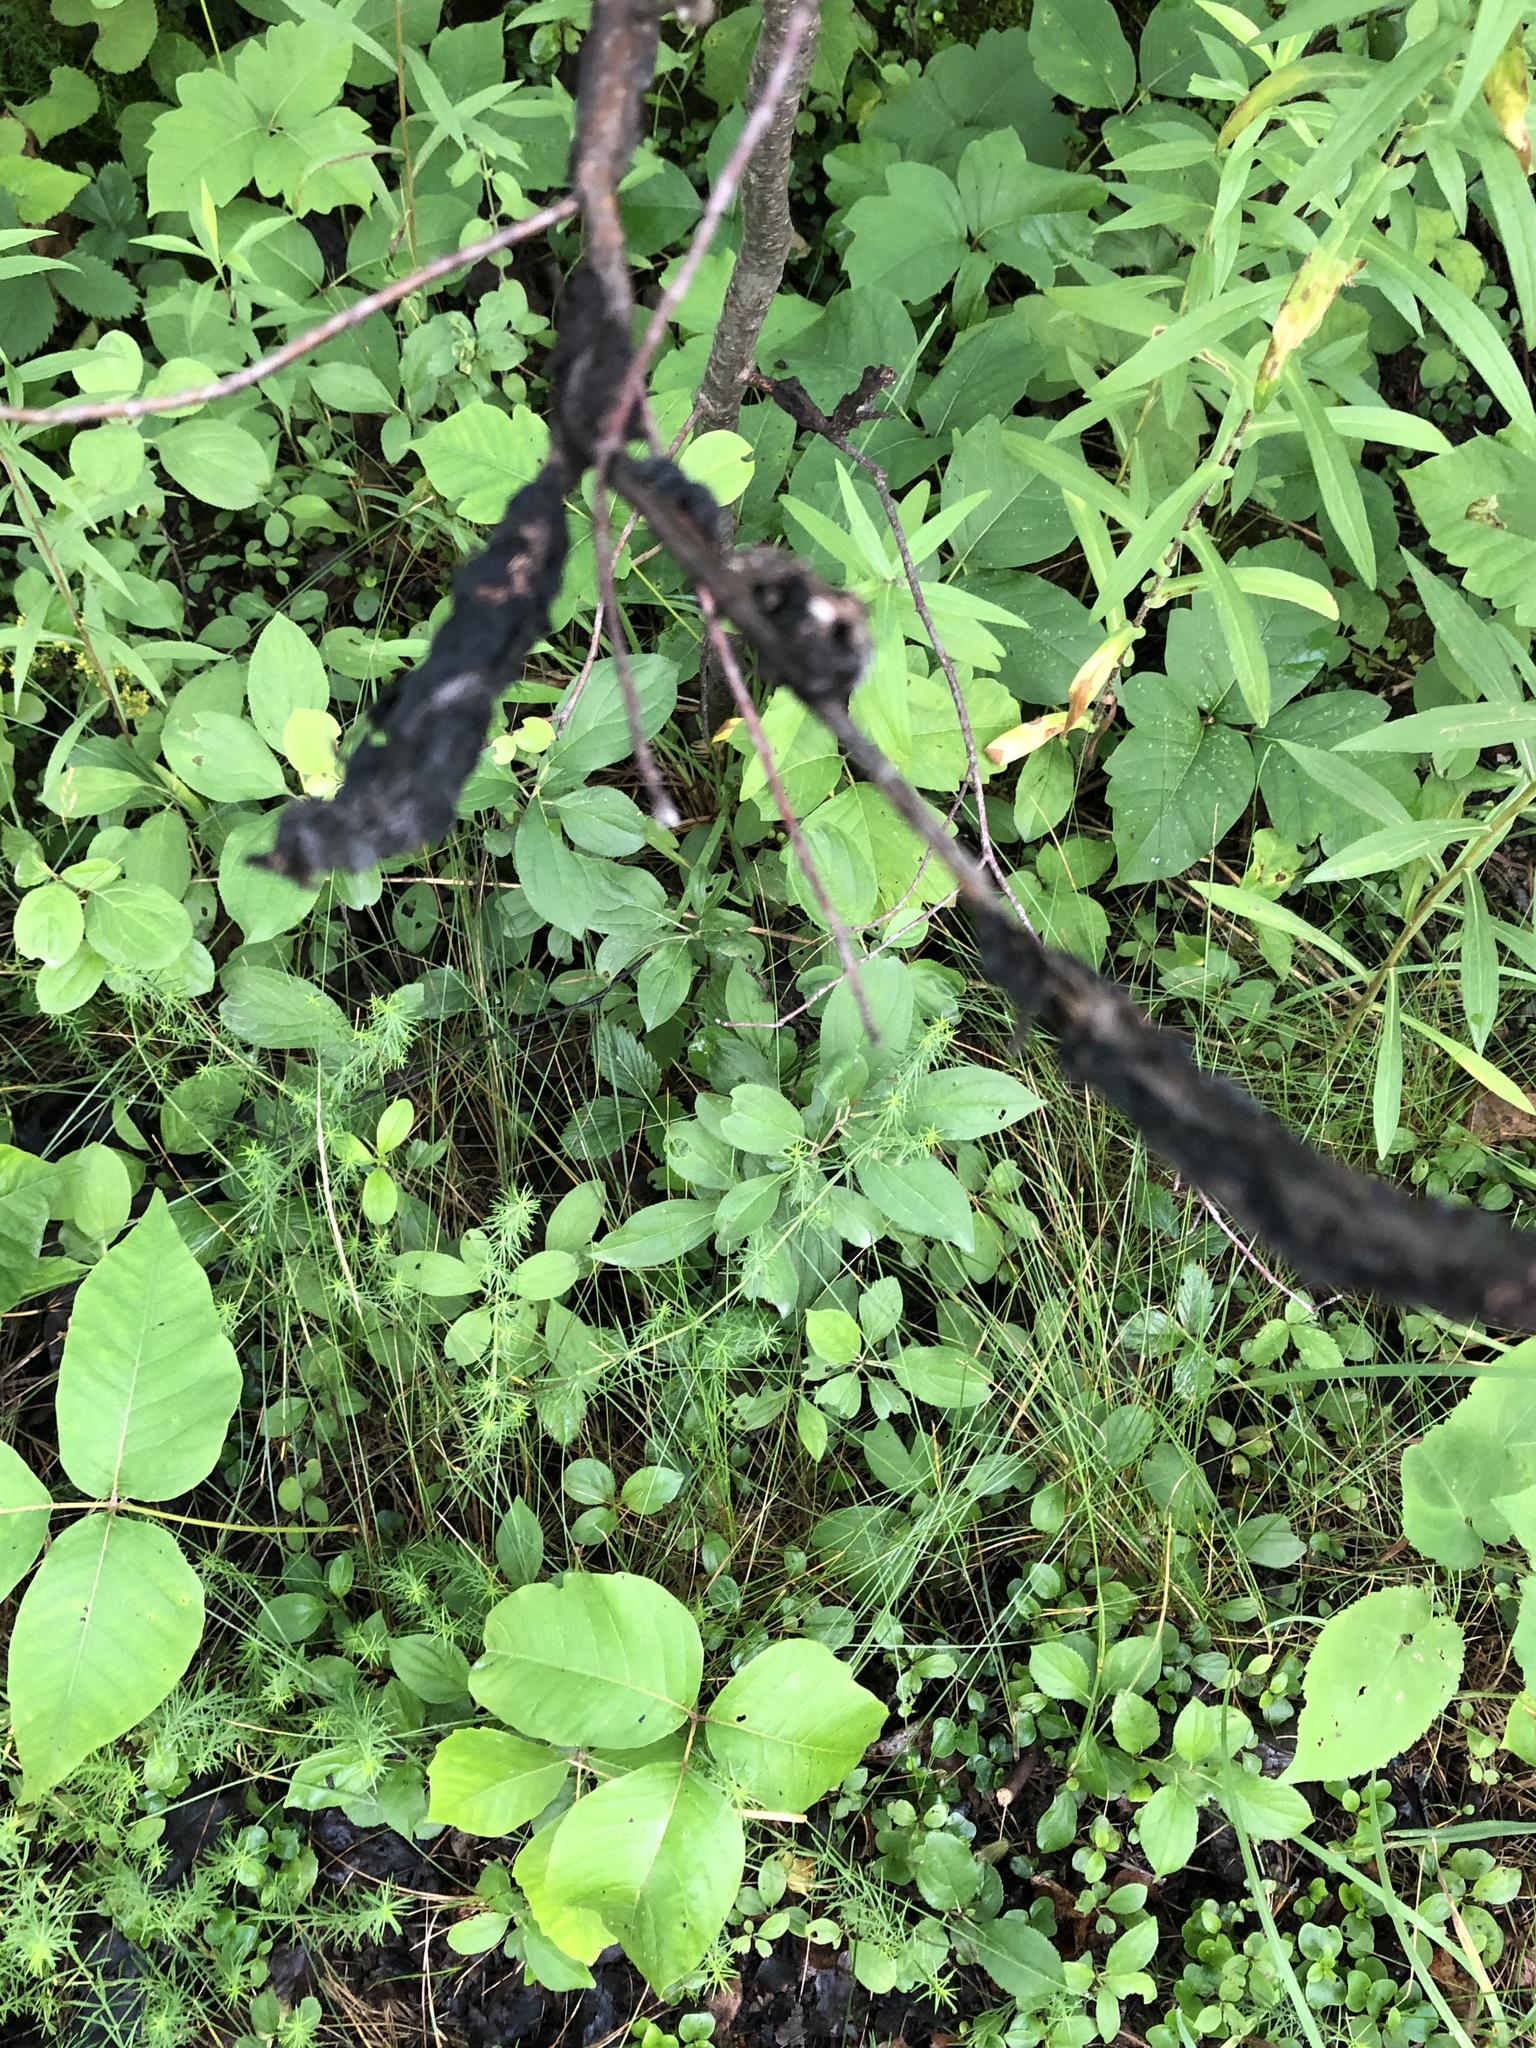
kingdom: Fungi
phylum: Ascomycota
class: Dothideomycetes
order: Venturiales
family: Venturiaceae
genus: Apiosporina
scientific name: Apiosporina morbosa
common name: Black knot
